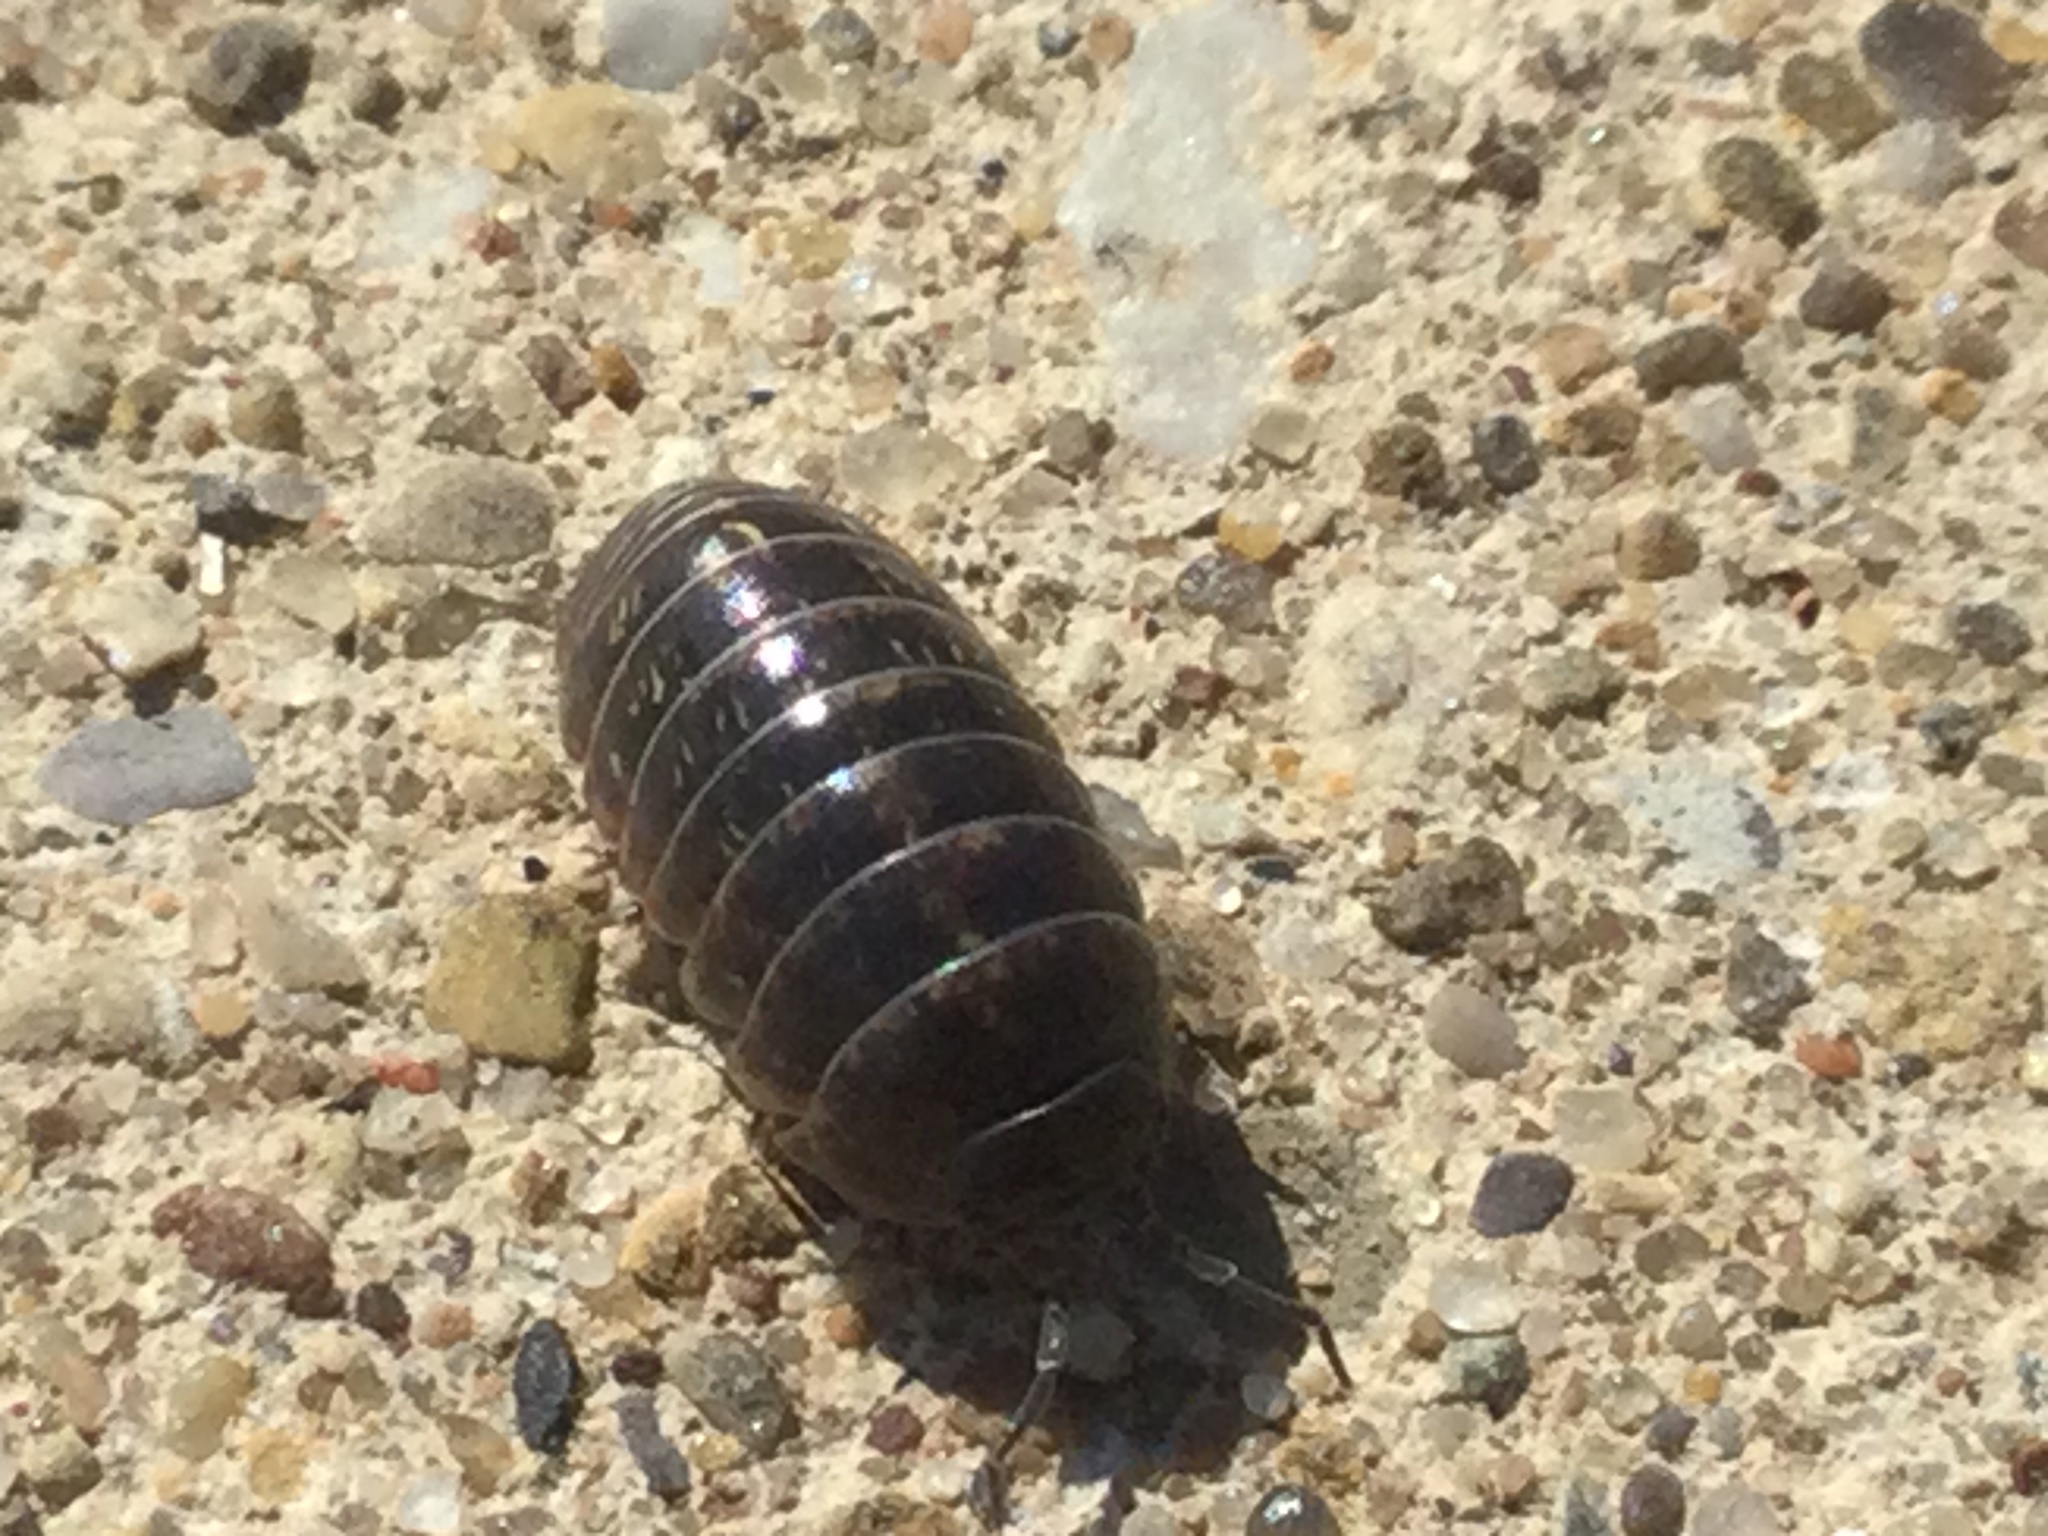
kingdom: Animalia
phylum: Arthropoda
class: Malacostraca
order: Isopoda
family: Armadillidiidae
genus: Armadillidium
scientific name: Armadillidium vulgare
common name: Common pill woodlouse
